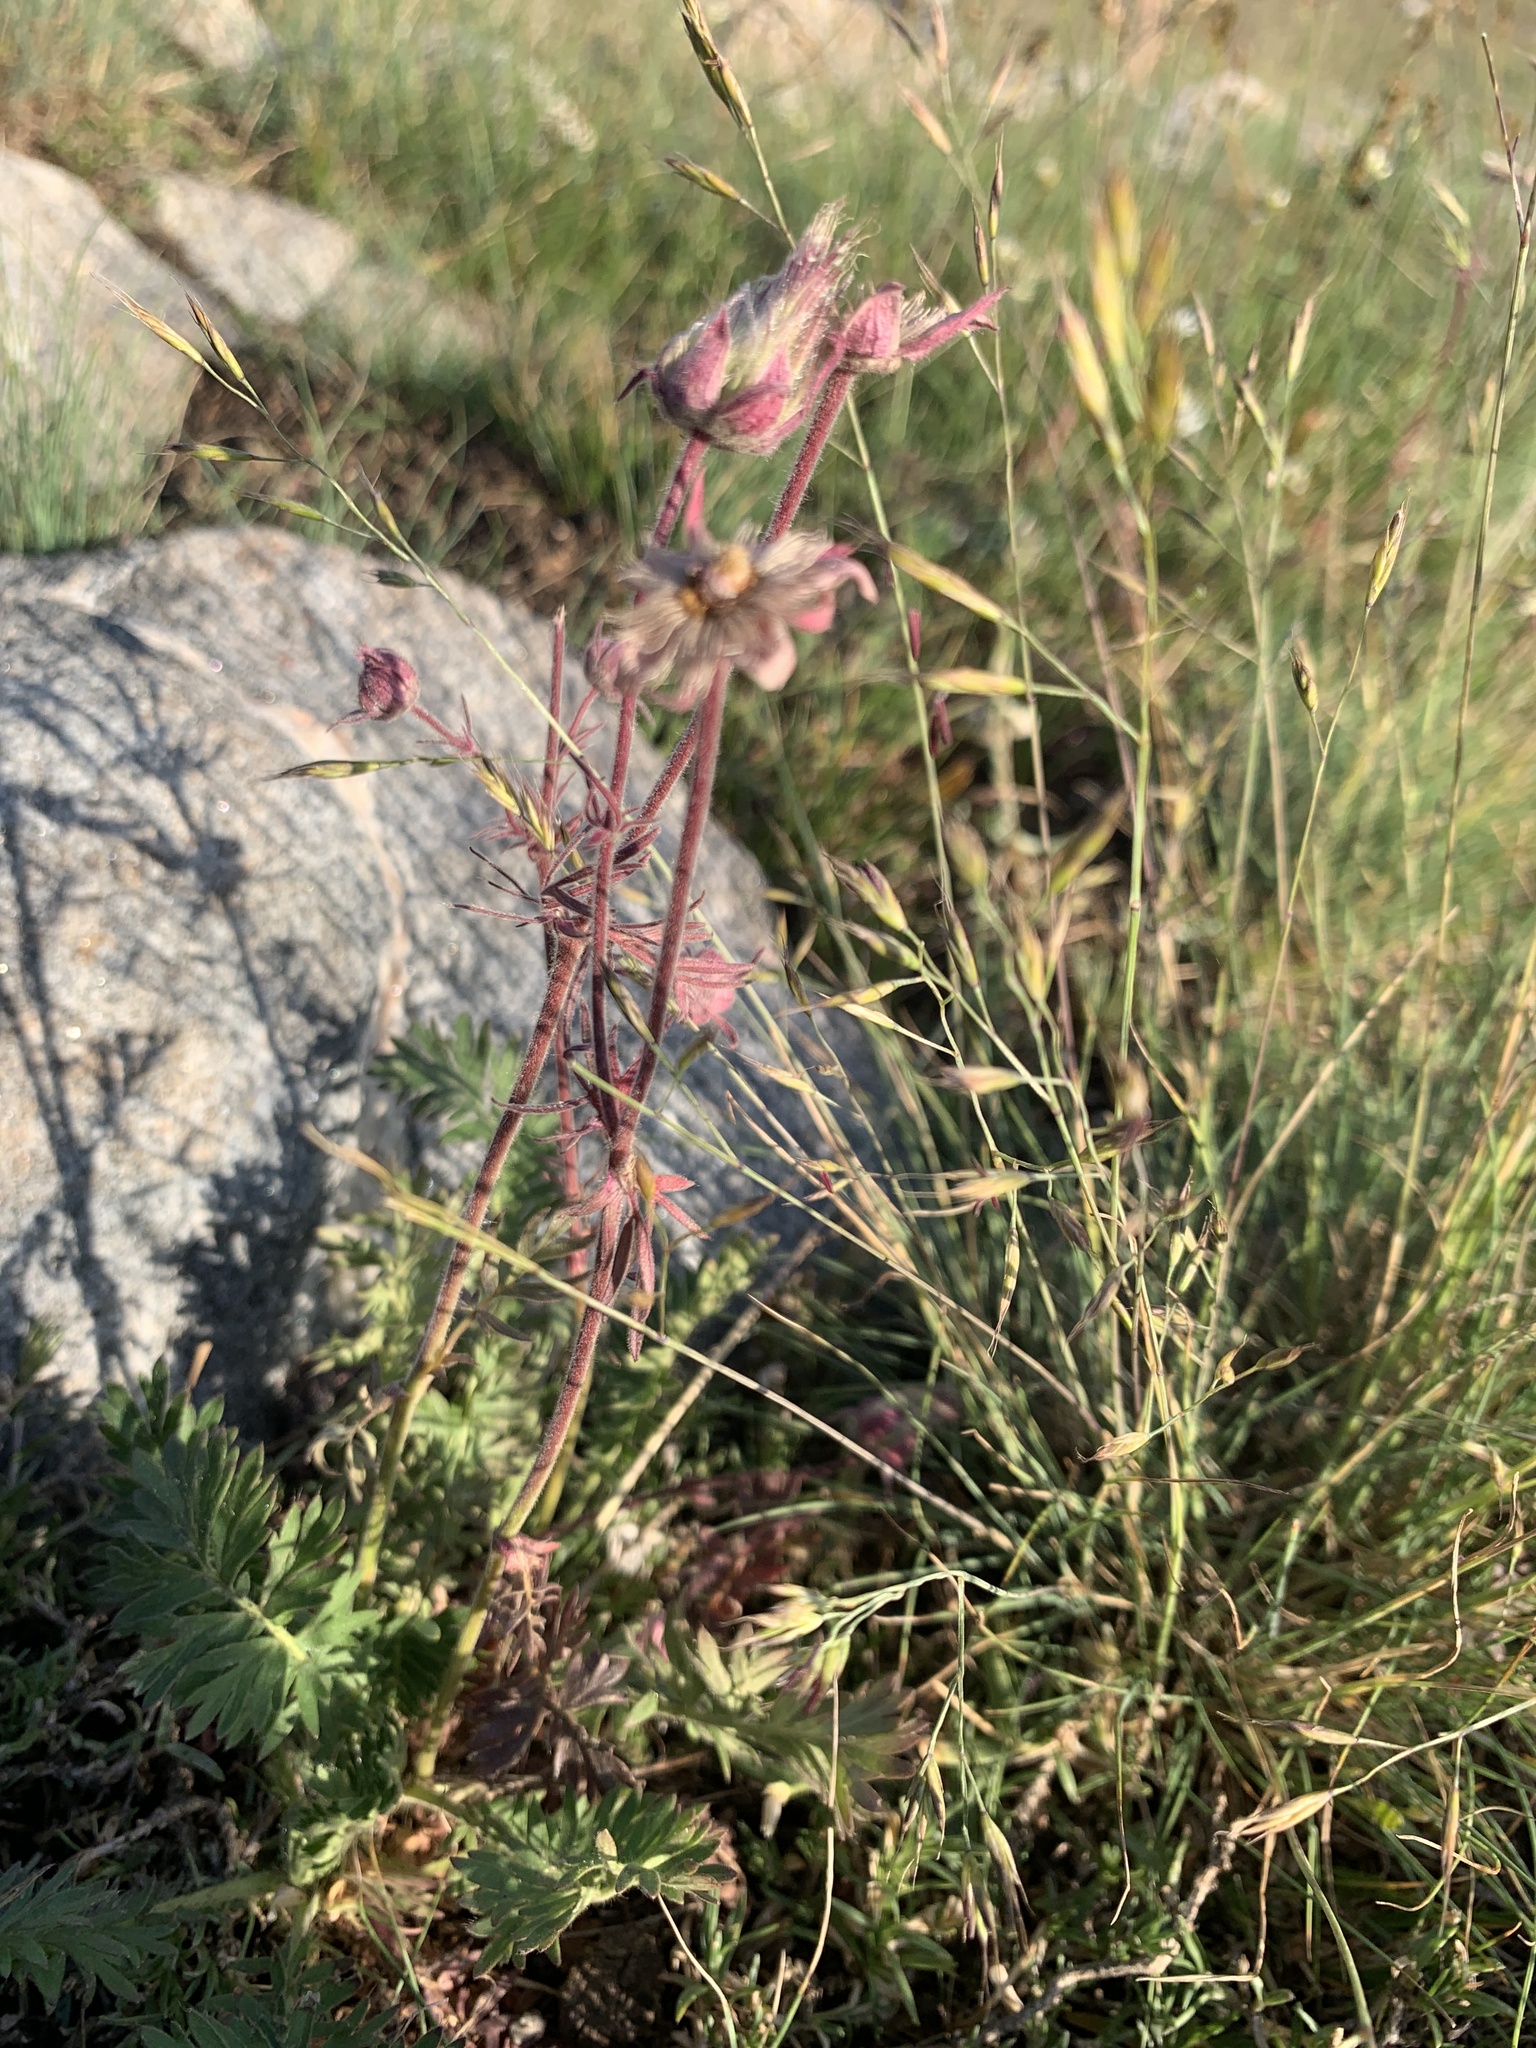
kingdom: Plantae
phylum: Tracheophyta
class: Magnoliopsida
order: Rosales
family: Rosaceae
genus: Geum
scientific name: Geum triflorum
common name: Old man's whiskers
